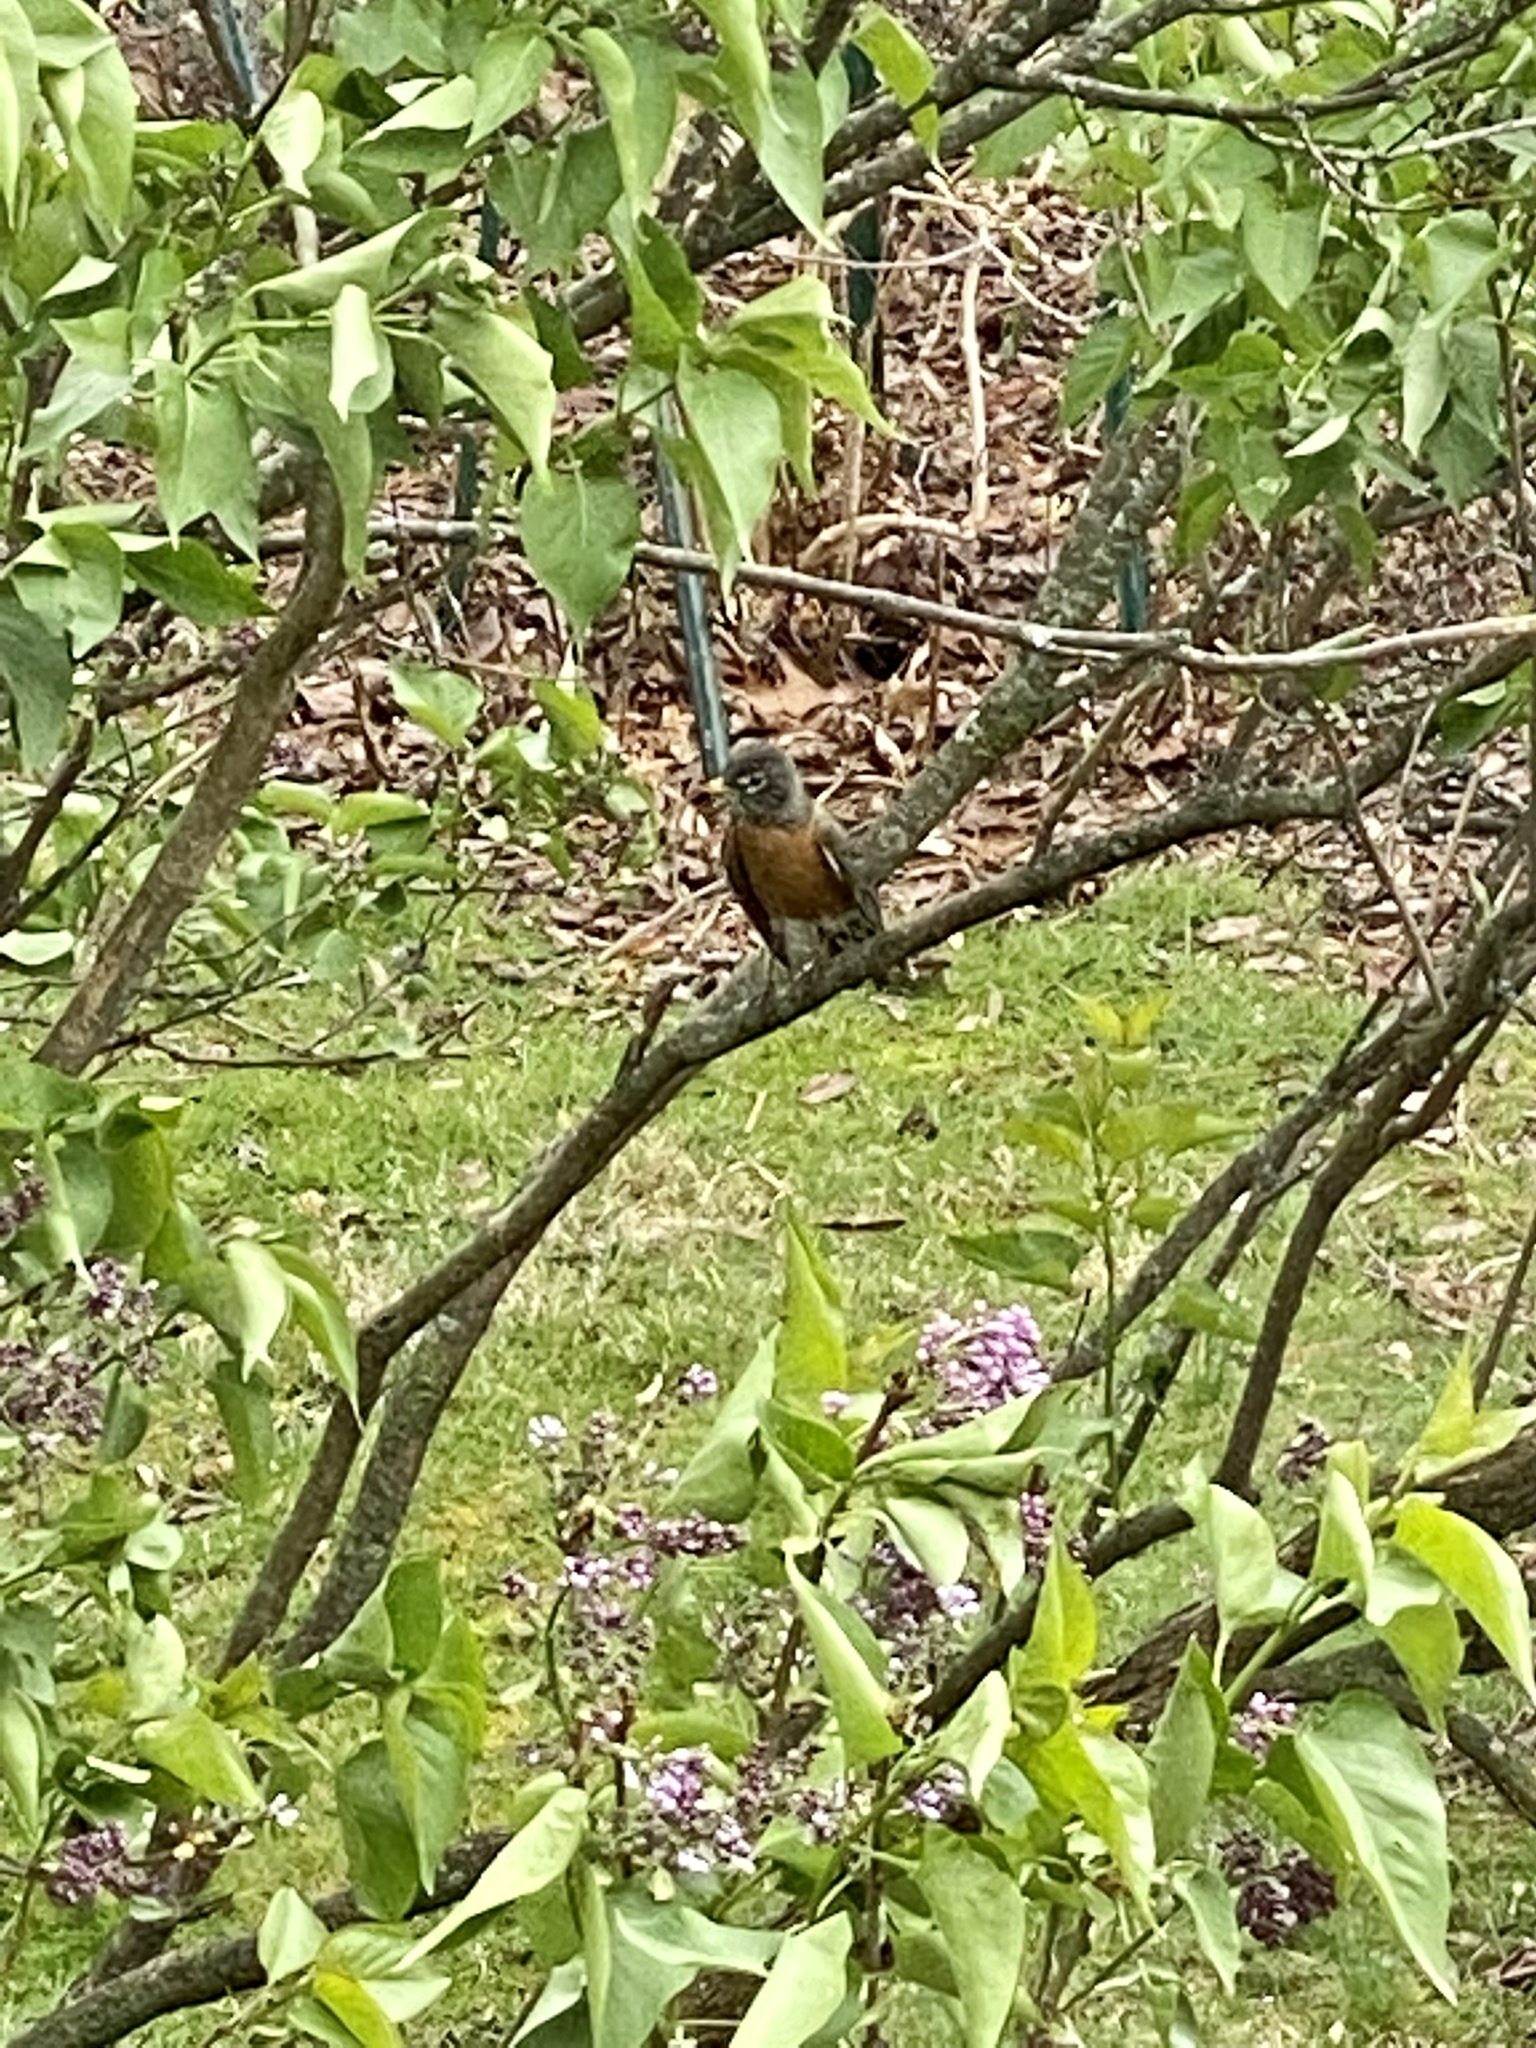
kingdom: Animalia
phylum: Chordata
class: Aves
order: Passeriformes
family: Turdidae
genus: Turdus
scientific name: Turdus migratorius
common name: American robin
